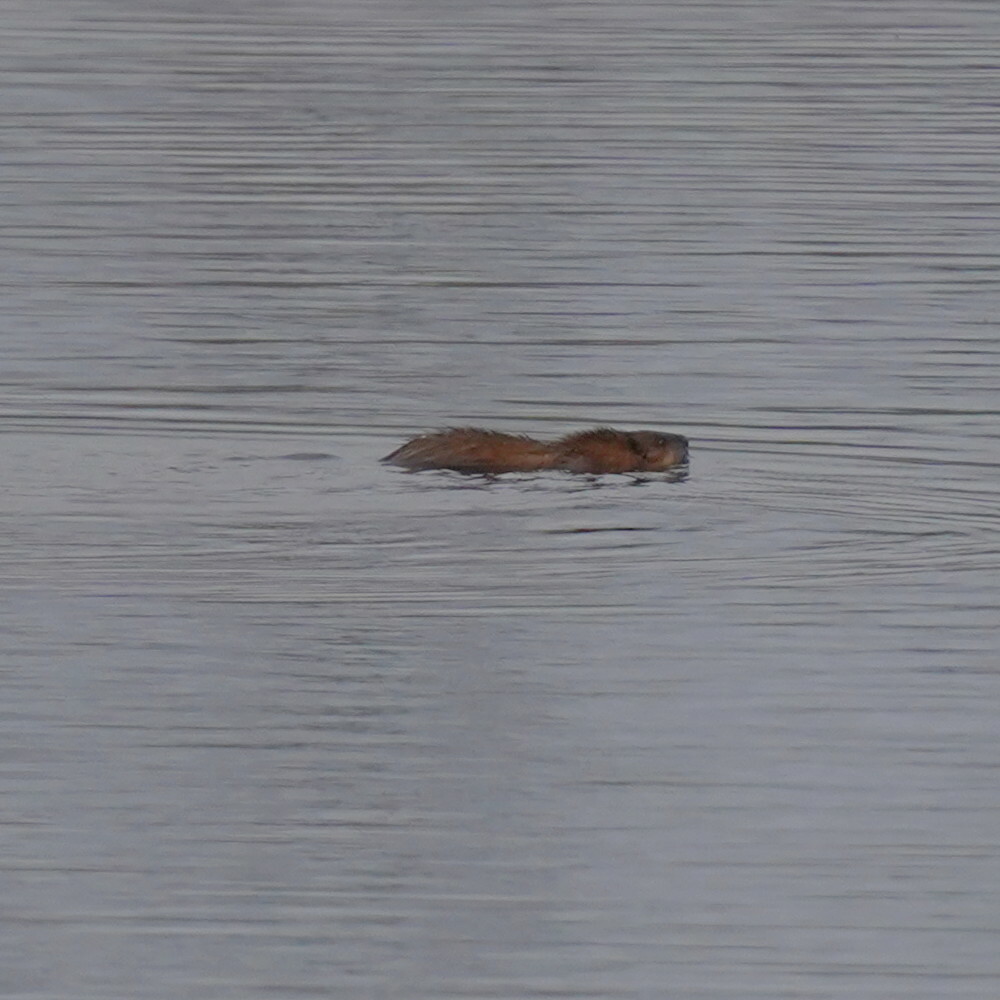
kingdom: Animalia
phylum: Chordata
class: Mammalia
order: Rodentia
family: Cricetidae
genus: Ondatra
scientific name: Ondatra zibethicus
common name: Muskrat
